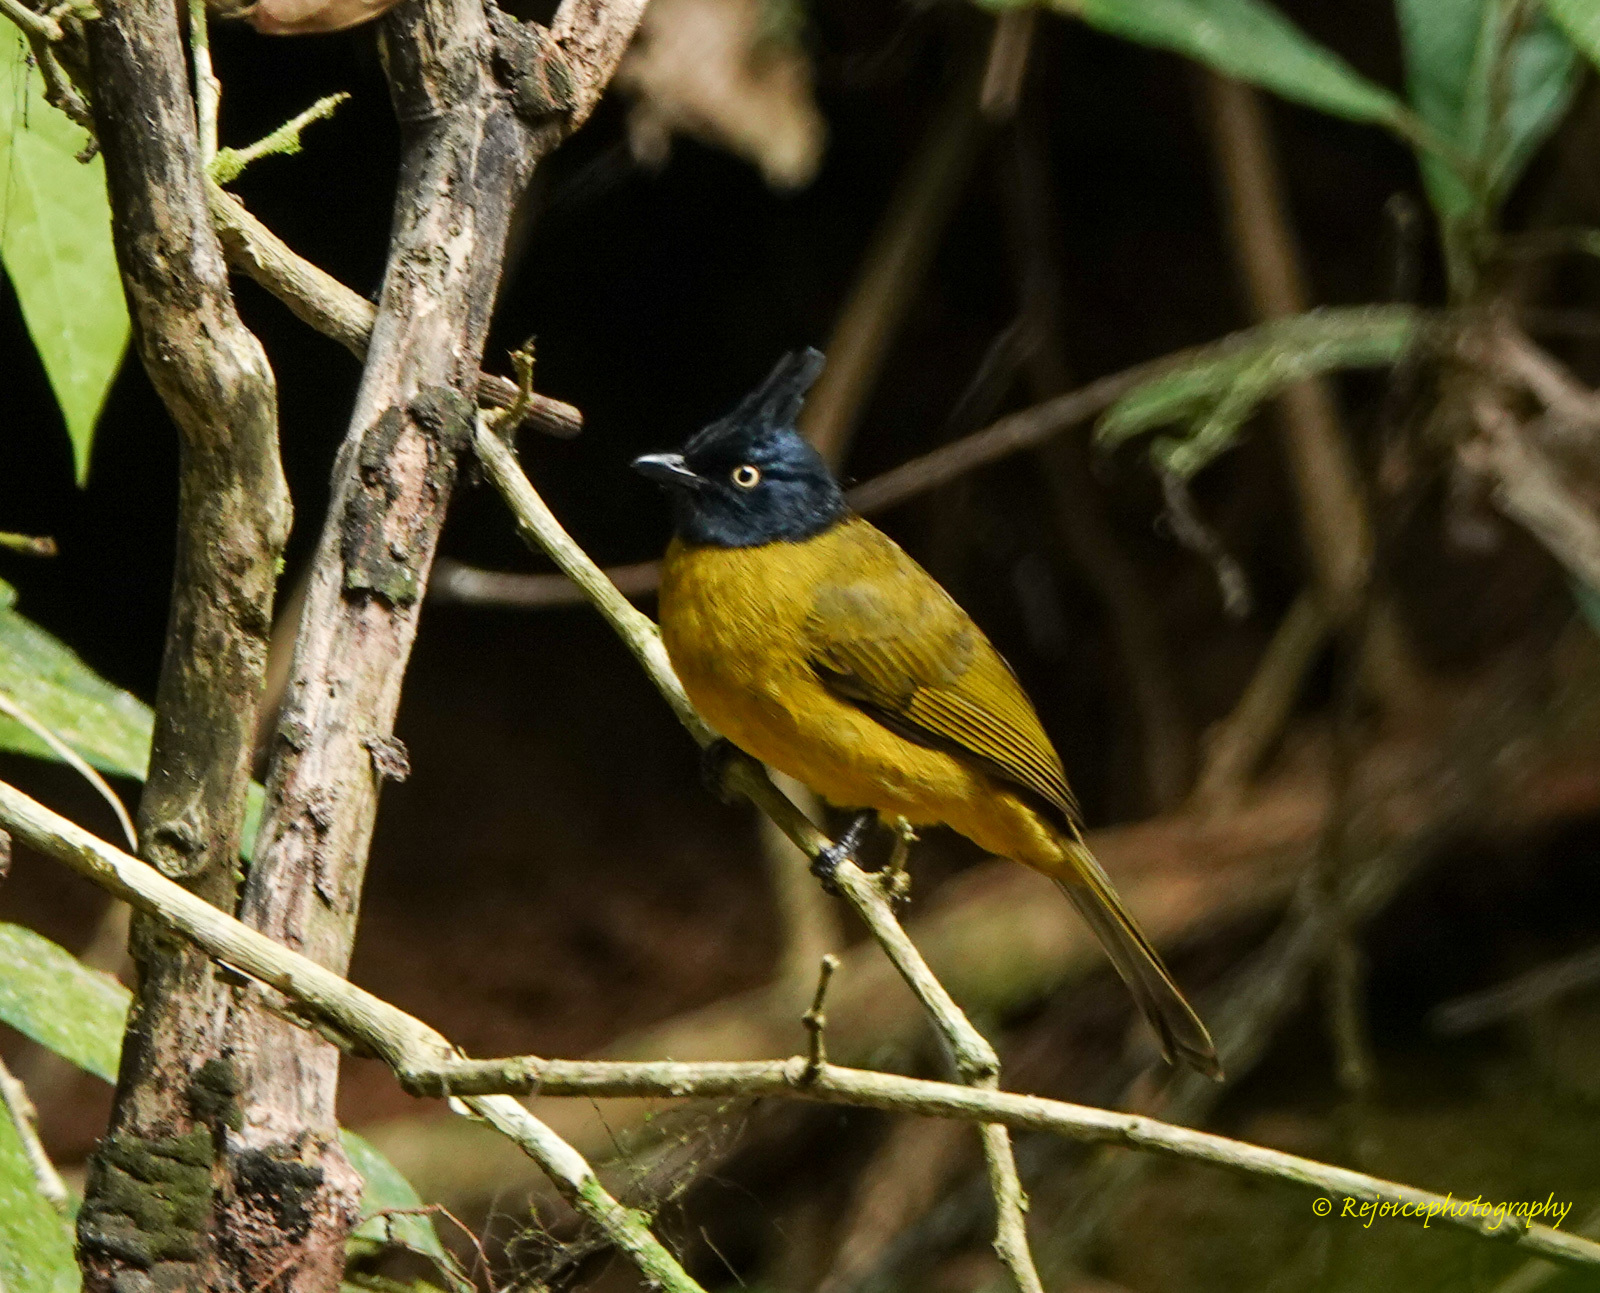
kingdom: Animalia
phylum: Chordata
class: Aves
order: Passeriformes
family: Pycnonotidae
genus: Pycnonotus
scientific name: Pycnonotus flaviventris
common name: Black-crested bulbul
